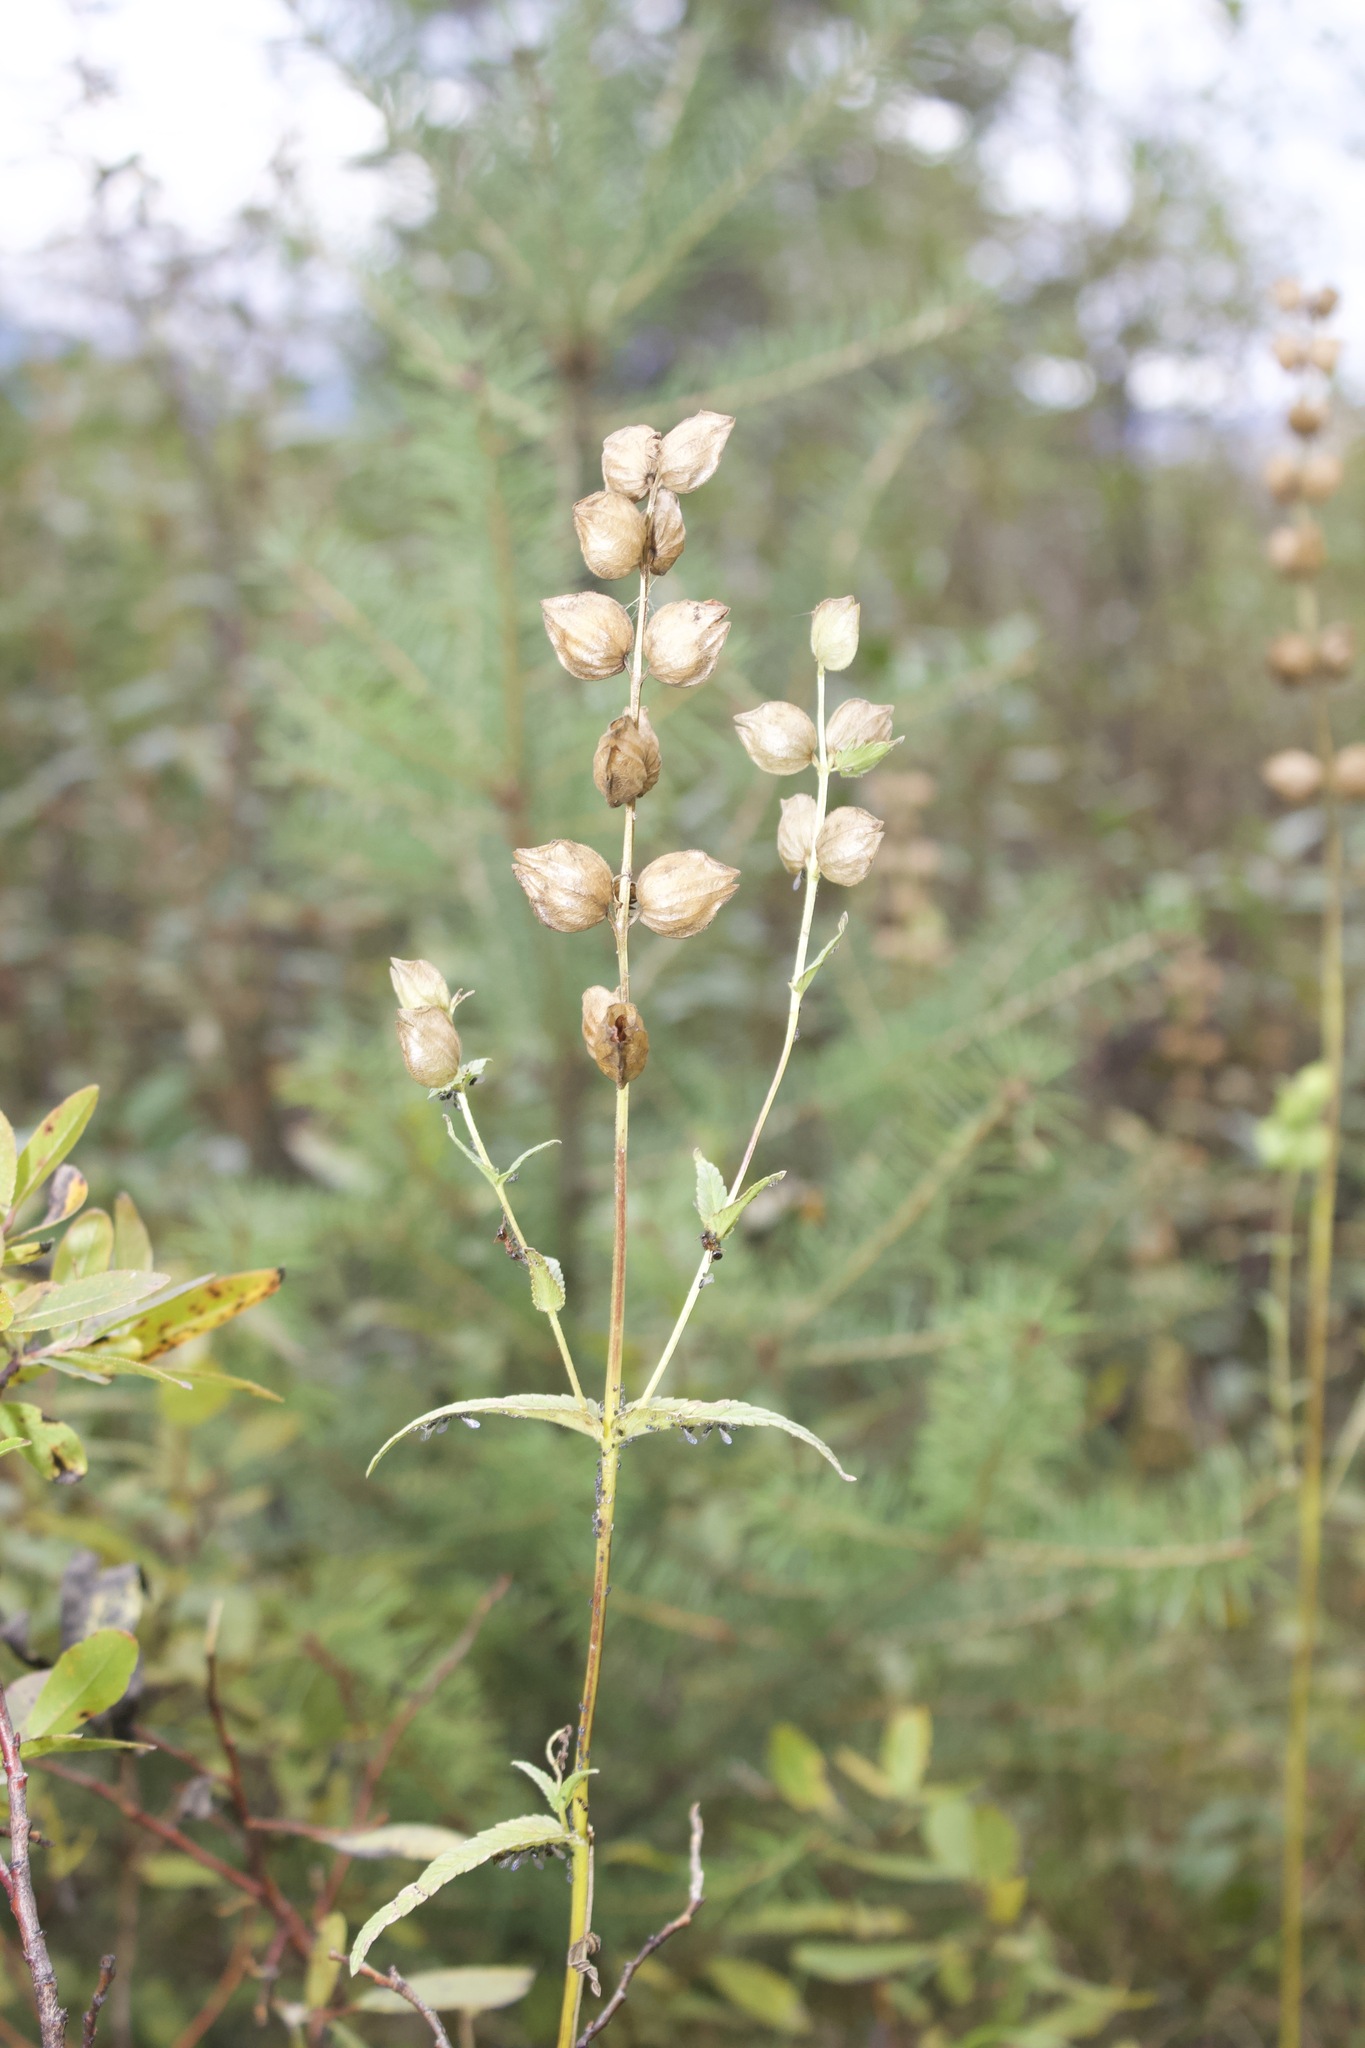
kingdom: Plantae
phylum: Tracheophyta
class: Magnoliopsida
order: Lamiales
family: Orobanchaceae
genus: Rhinanthus
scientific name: Rhinanthus groenlandicus
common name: Little yellow rattle
